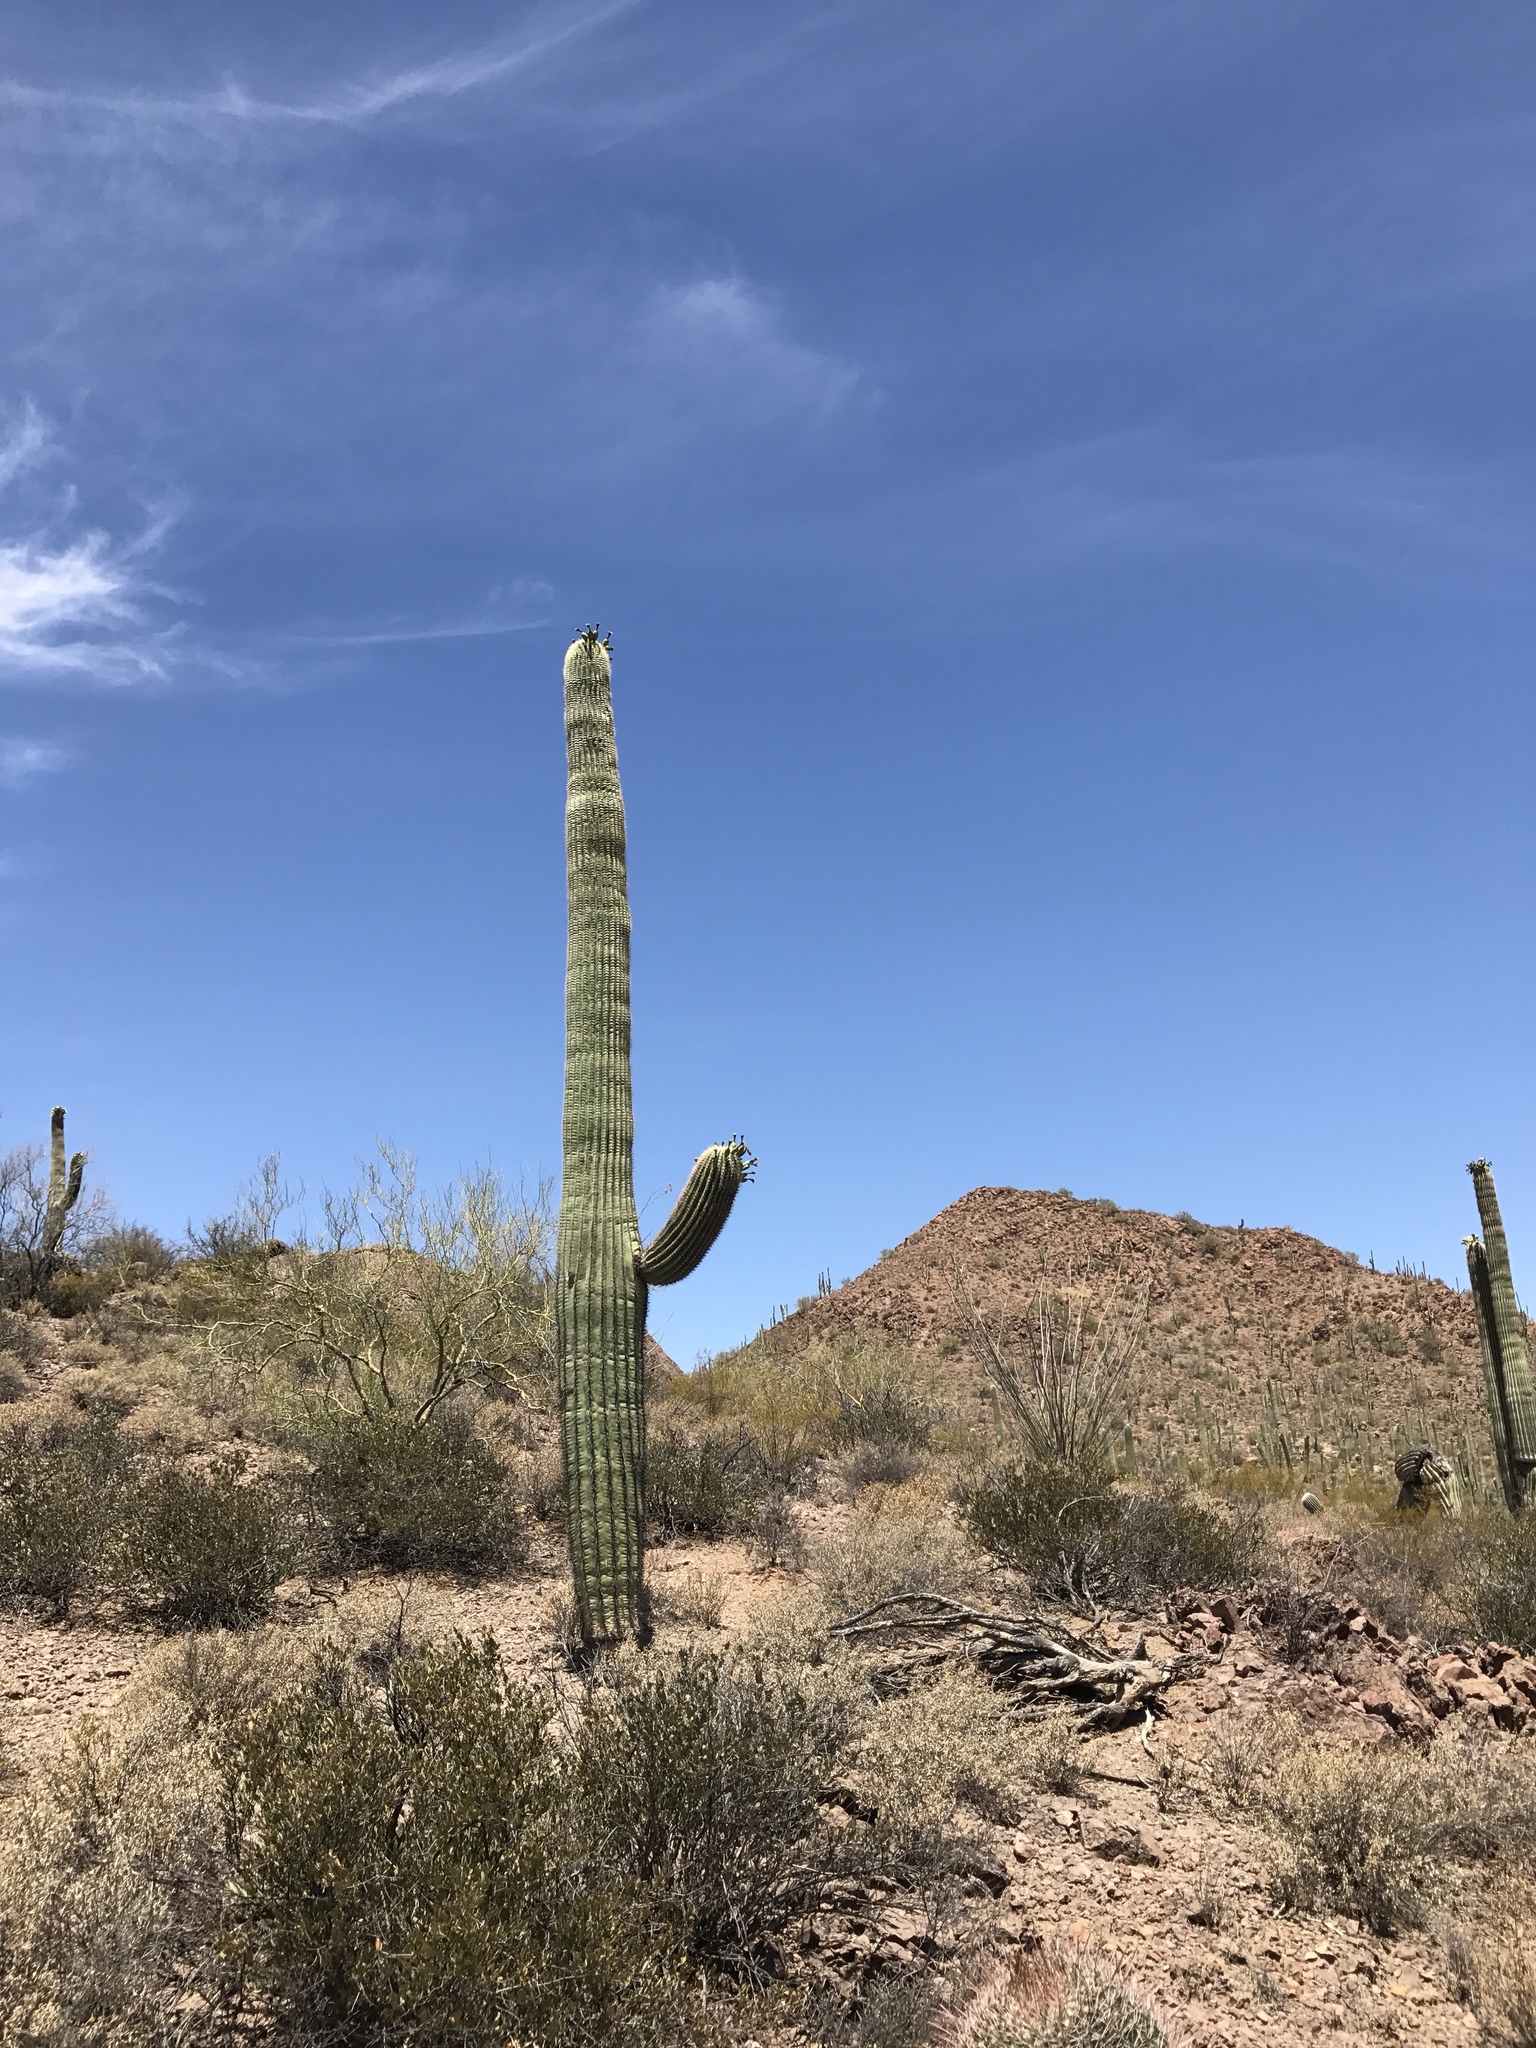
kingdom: Plantae
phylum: Tracheophyta
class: Magnoliopsida
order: Caryophyllales
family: Cactaceae
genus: Carnegiea
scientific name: Carnegiea gigantea
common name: Saguaro
